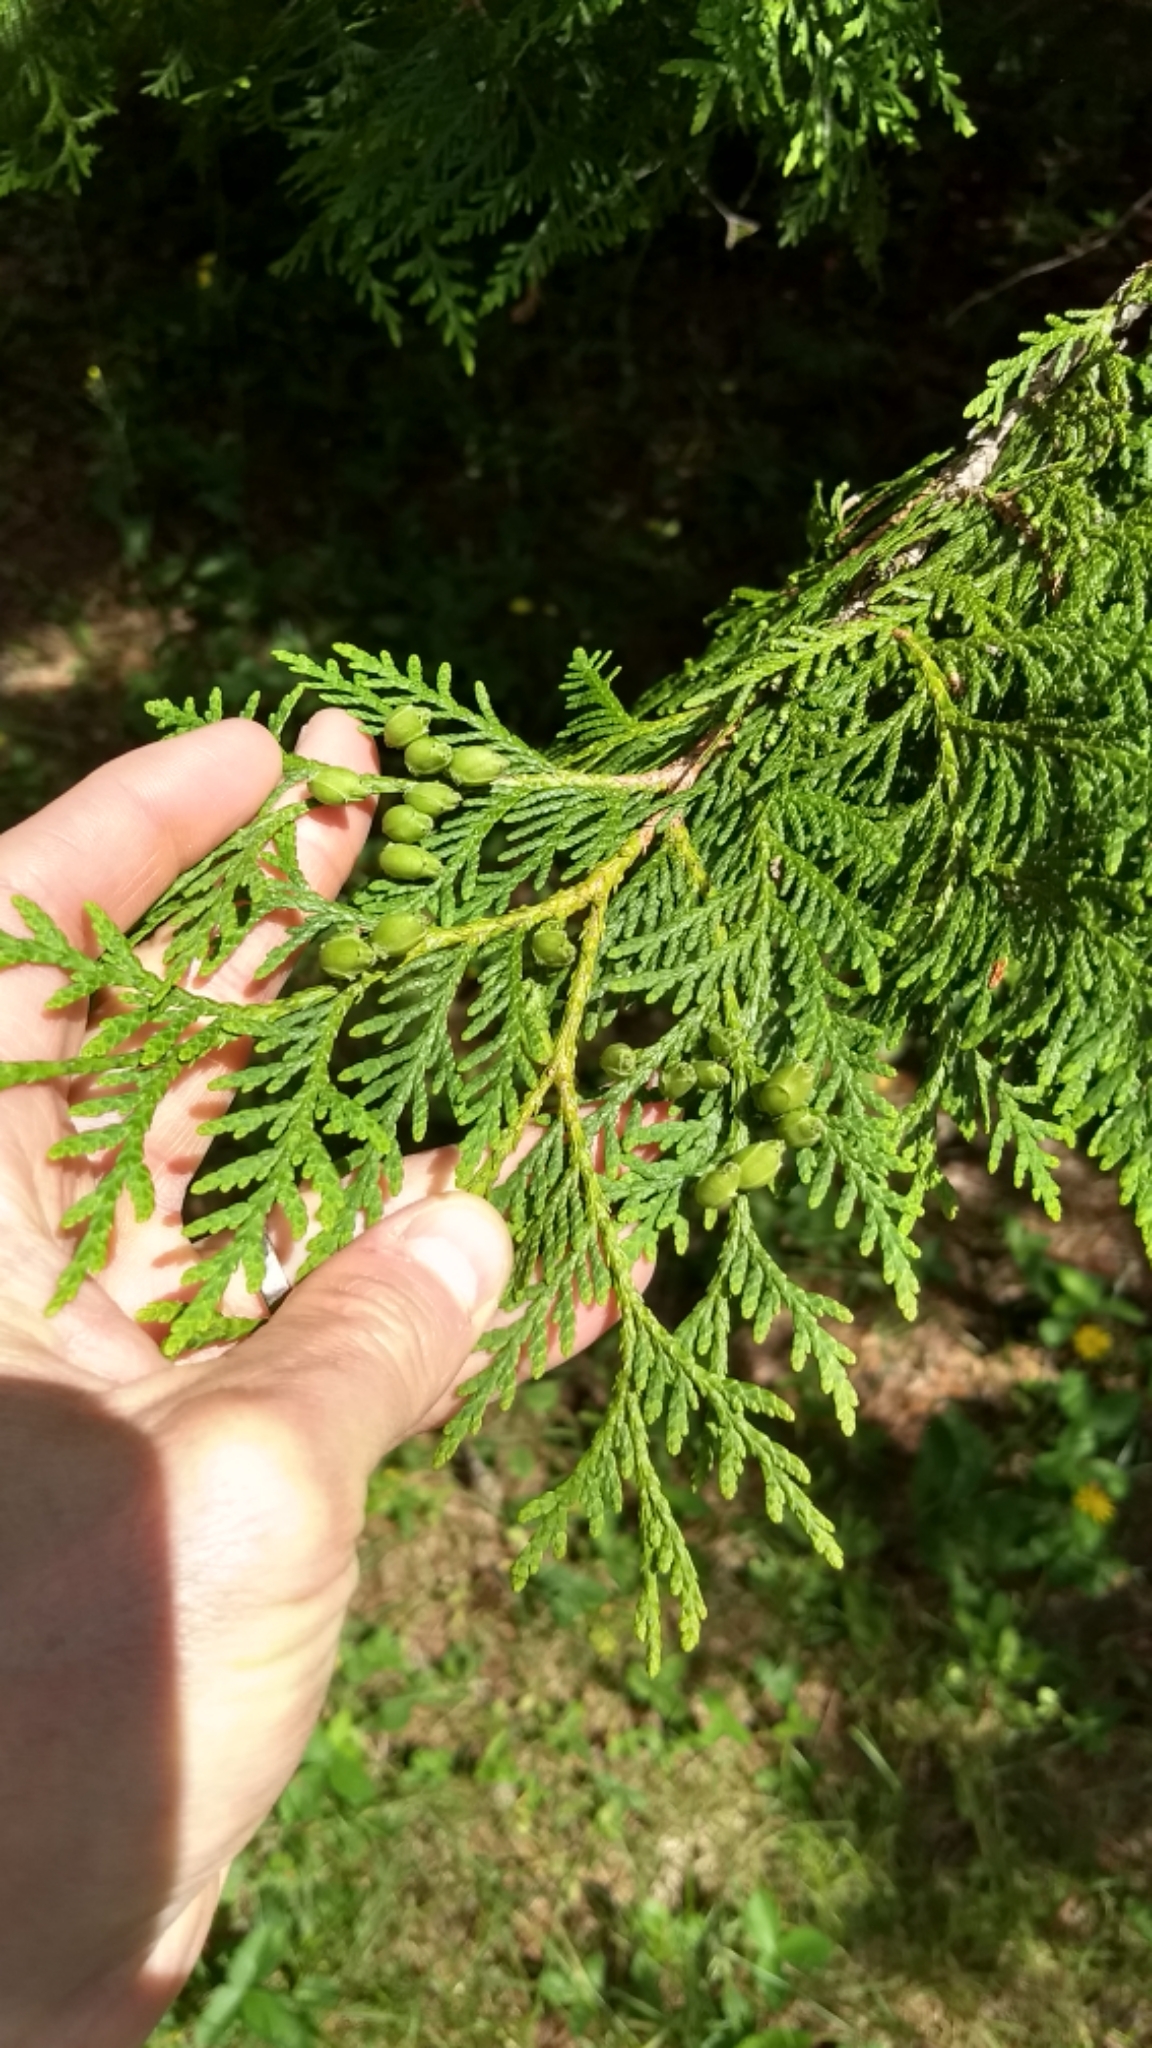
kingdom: Plantae
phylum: Tracheophyta
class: Pinopsida
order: Pinales
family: Cupressaceae
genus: Thuja
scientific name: Thuja occidentalis
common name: Northern white-cedar
